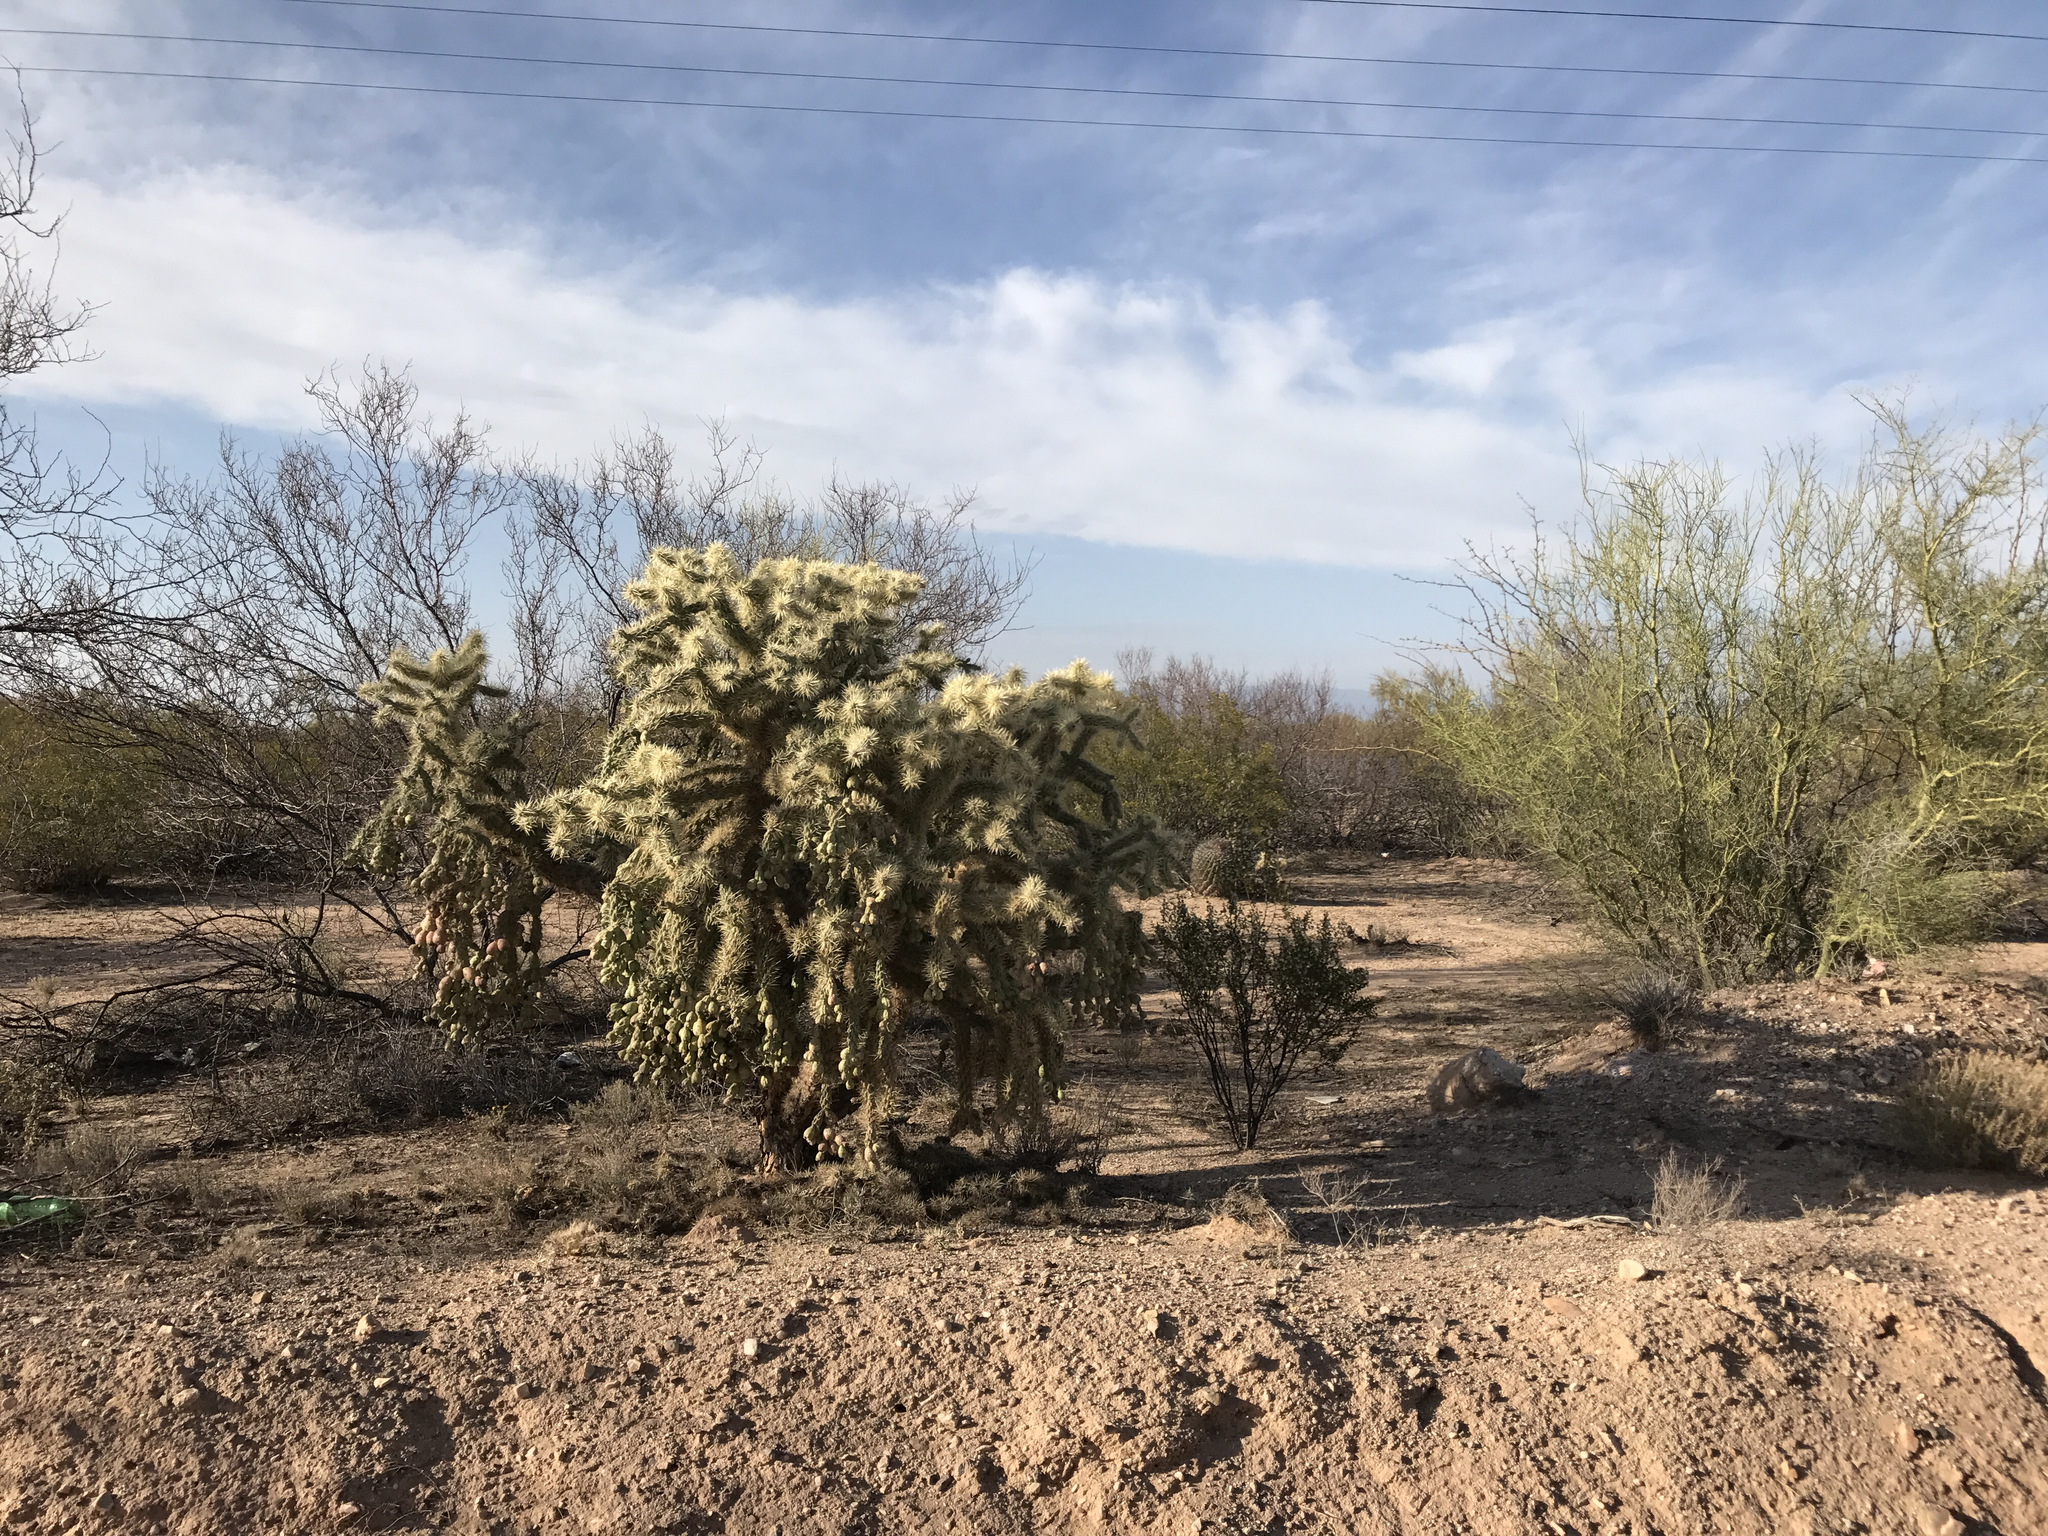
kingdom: Plantae
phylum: Tracheophyta
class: Magnoliopsida
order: Caryophyllales
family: Cactaceae
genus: Cylindropuntia
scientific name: Cylindropuntia fulgida
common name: Jumping cholla
